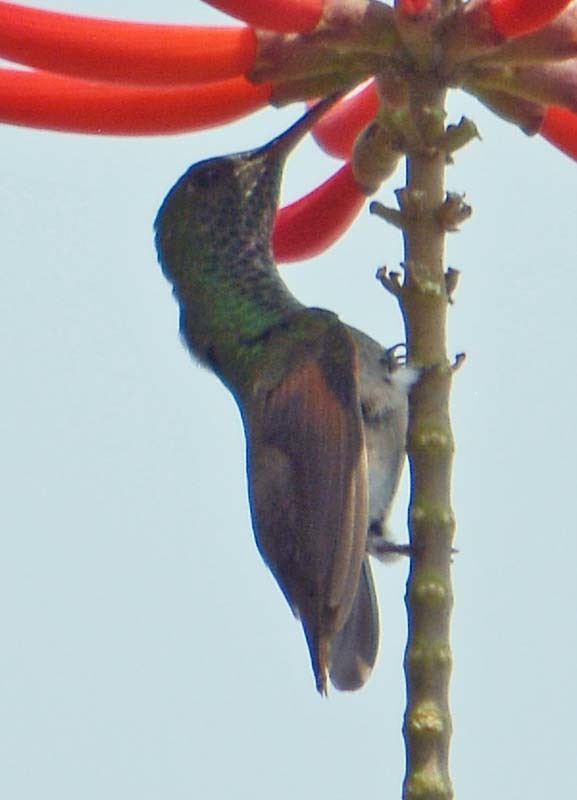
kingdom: Animalia
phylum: Chordata
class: Aves
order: Apodiformes
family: Trochilidae
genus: Saucerottia
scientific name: Saucerottia beryllina
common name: Berylline hummingbird
